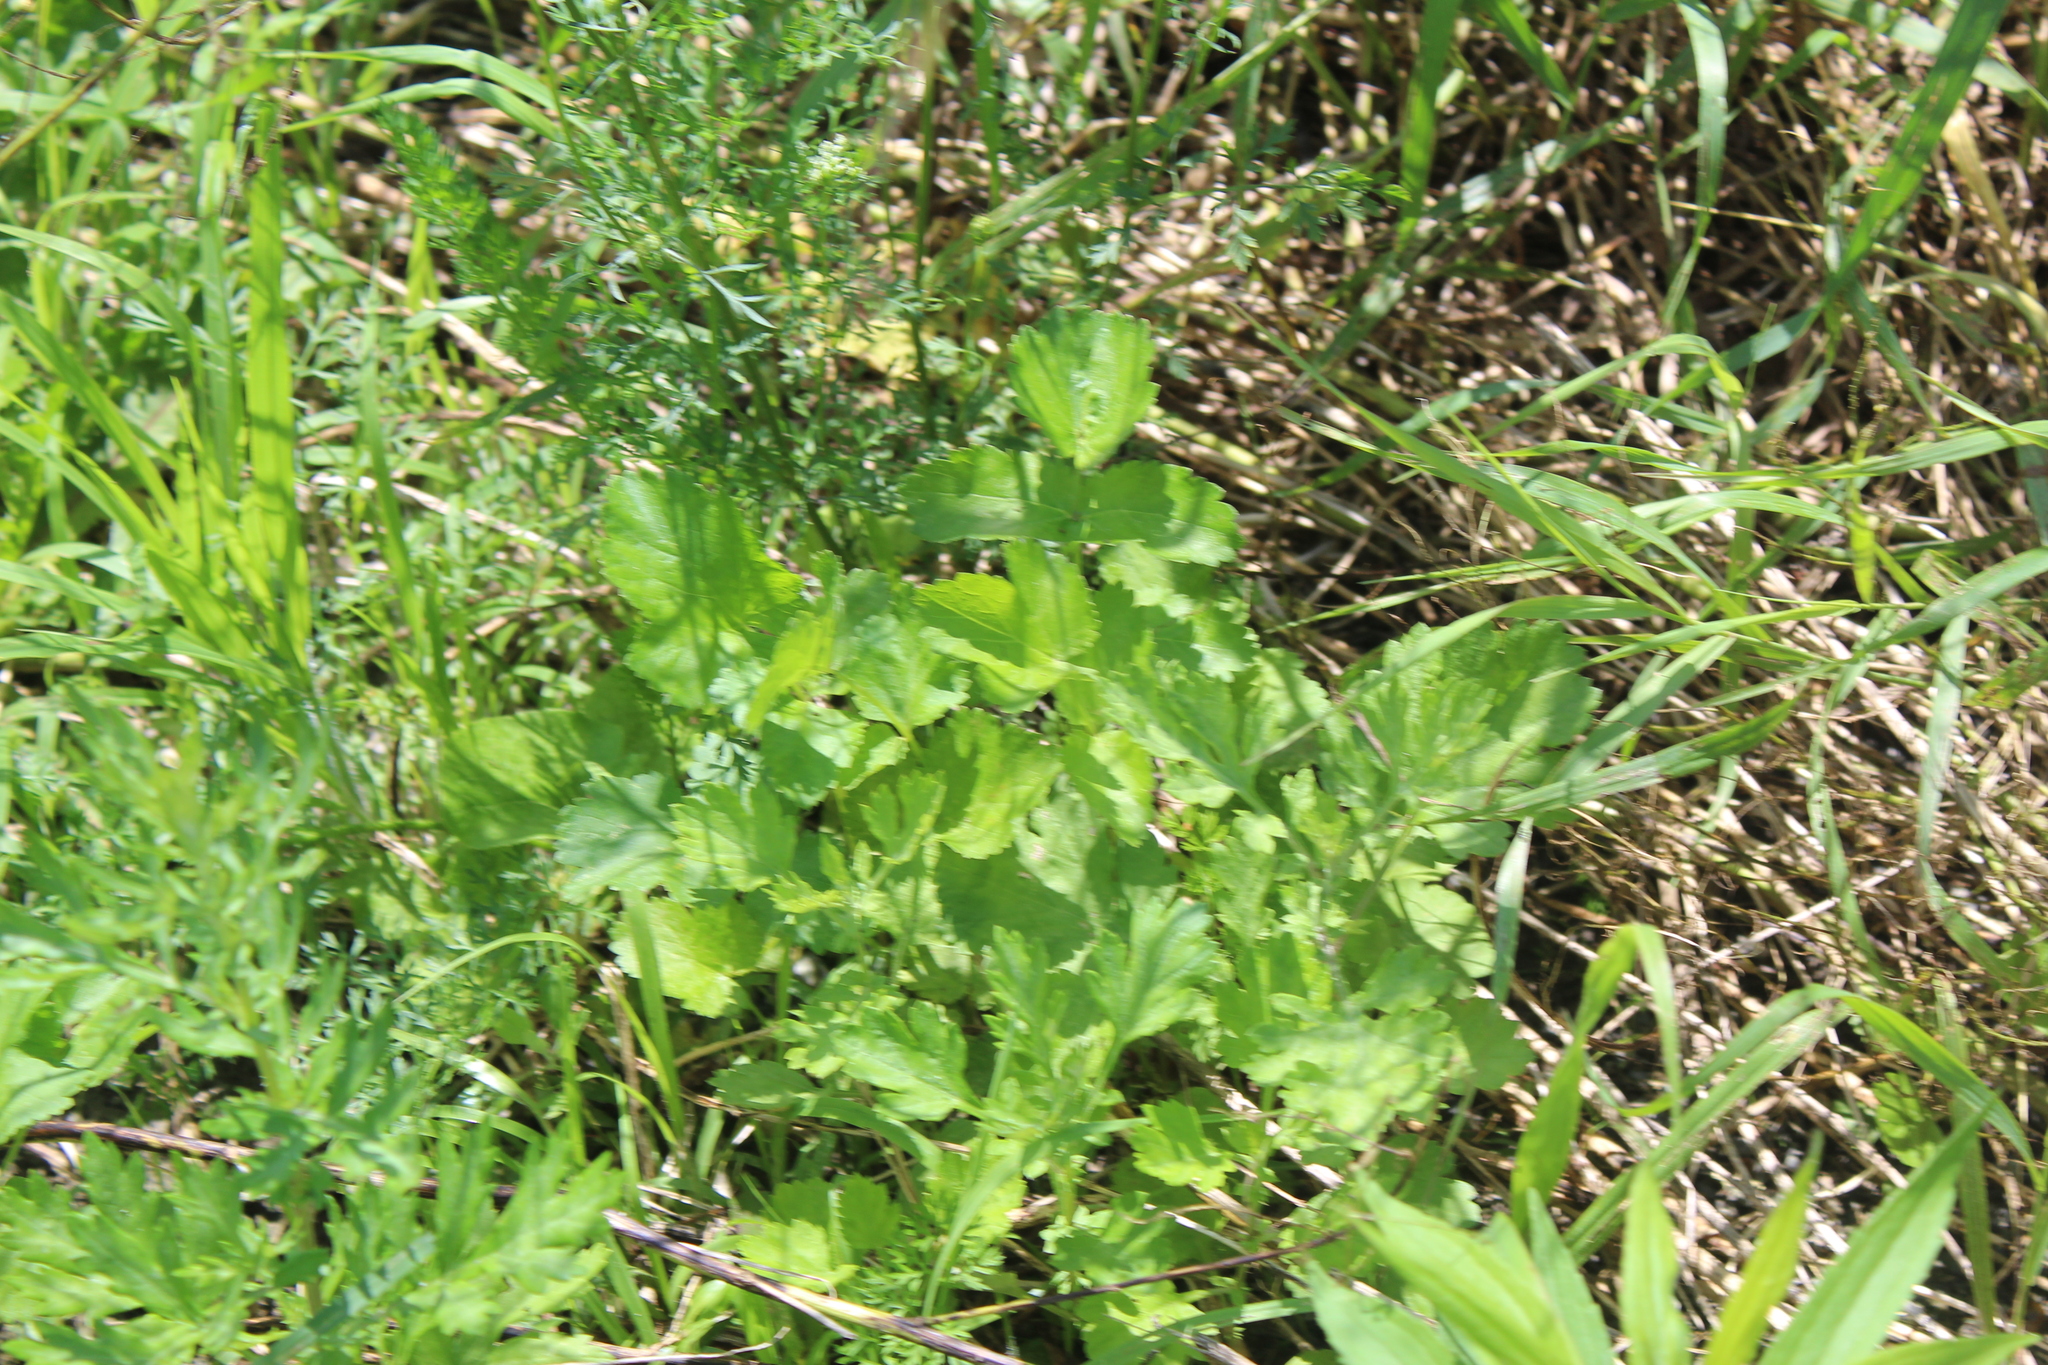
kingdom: Plantae
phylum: Tracheophyta
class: Magnoliopsida
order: Ranunculales
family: Papaveraceae
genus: Chelidonium
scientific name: Chelidonium majus
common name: Greater celandine
